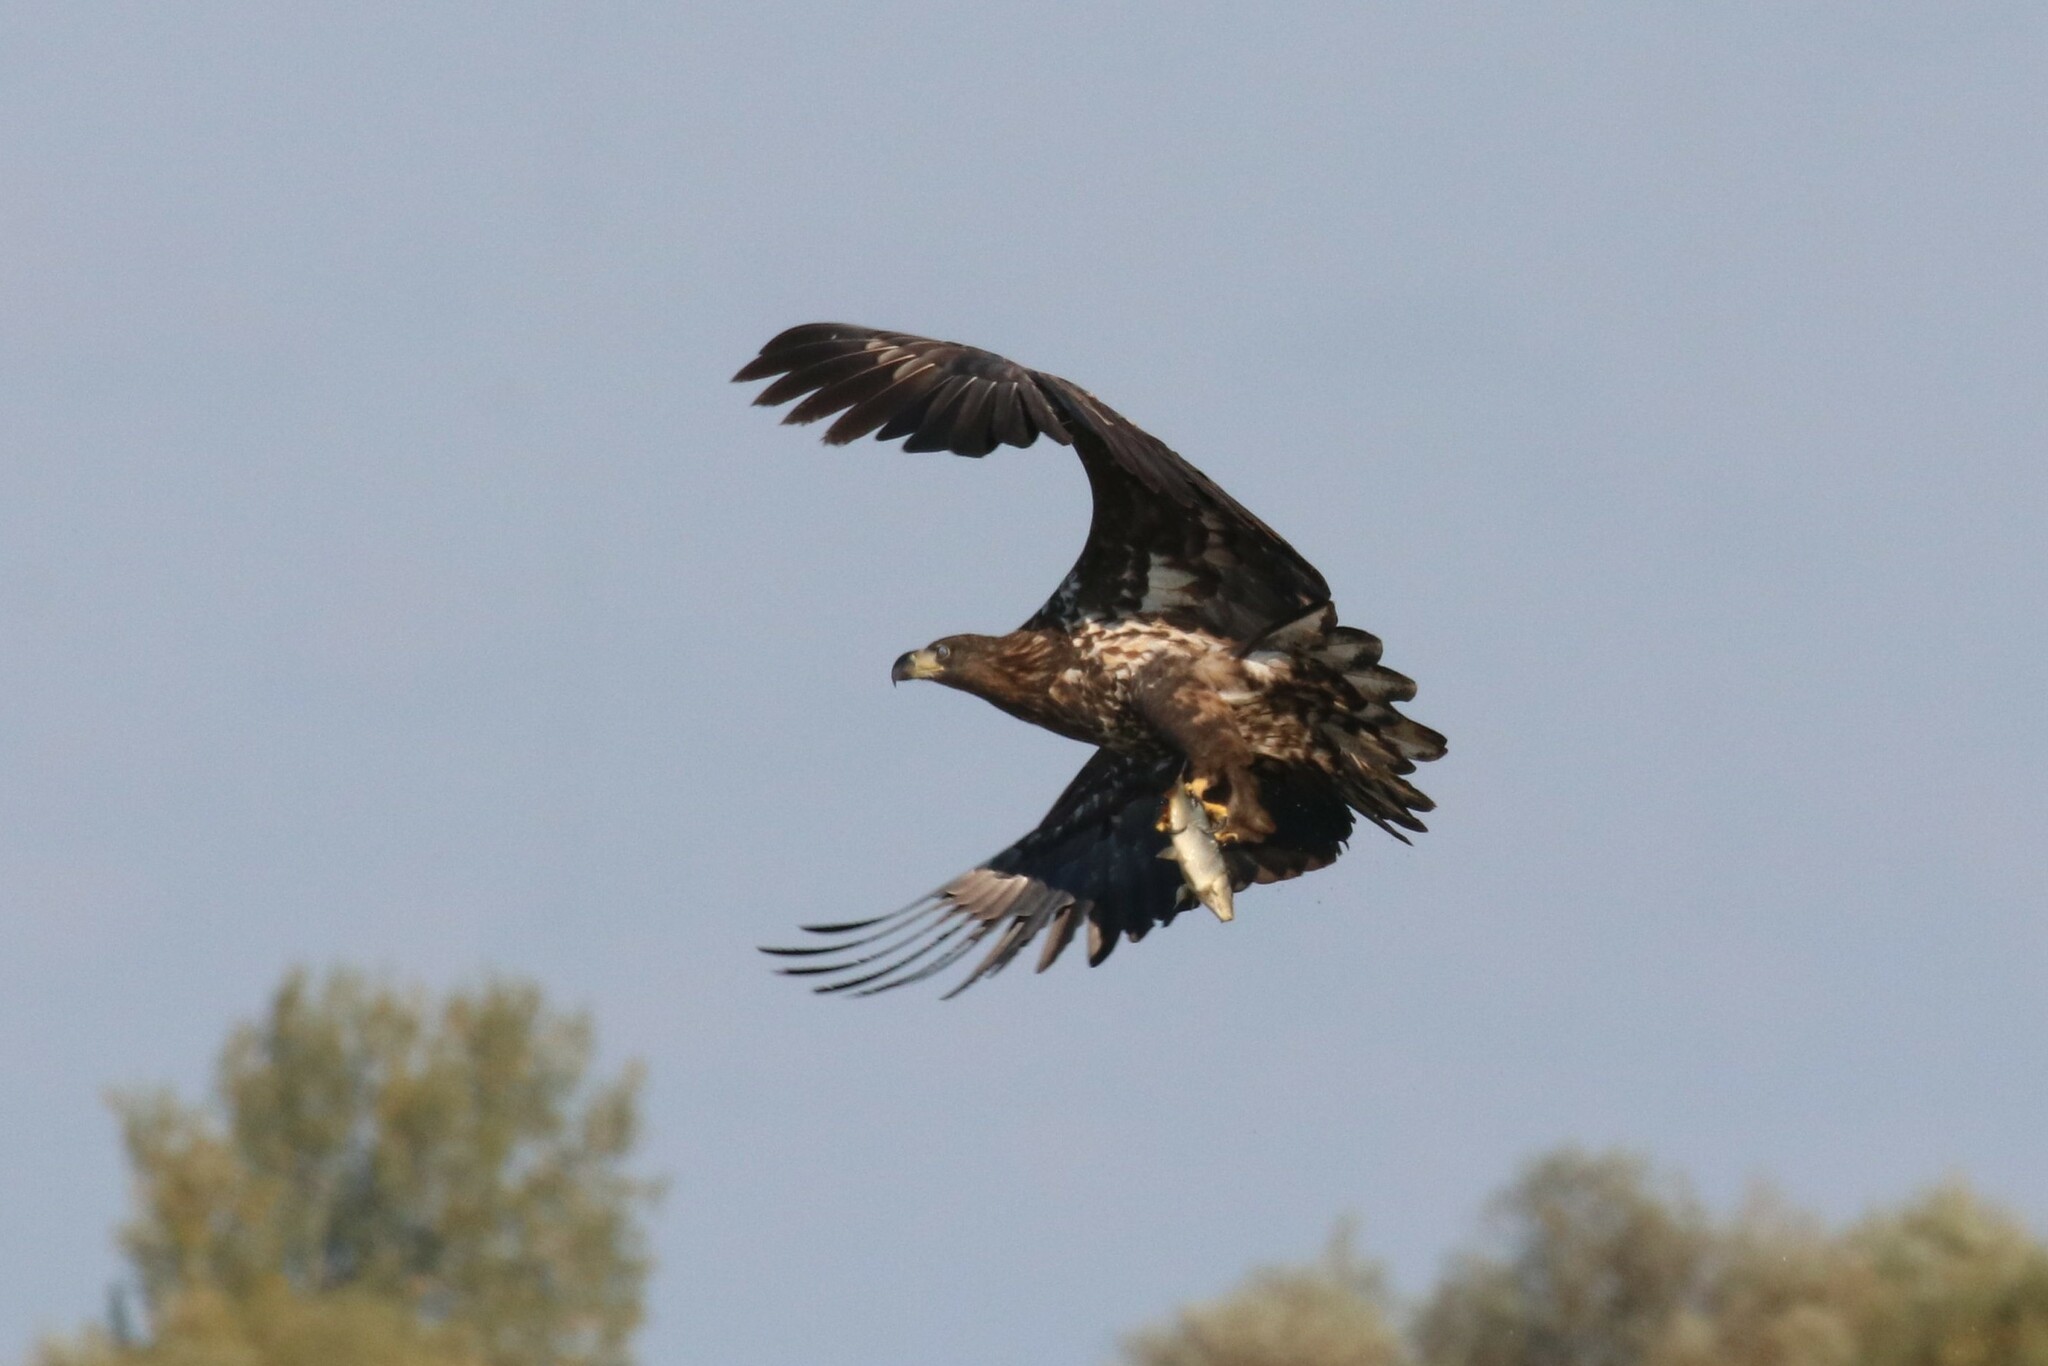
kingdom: Animalia
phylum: Chordata
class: Aves
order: Accipitriformes
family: Accipitridae
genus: Haliaeetus
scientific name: Haliaeetus albicilla
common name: White-tailed eagle
